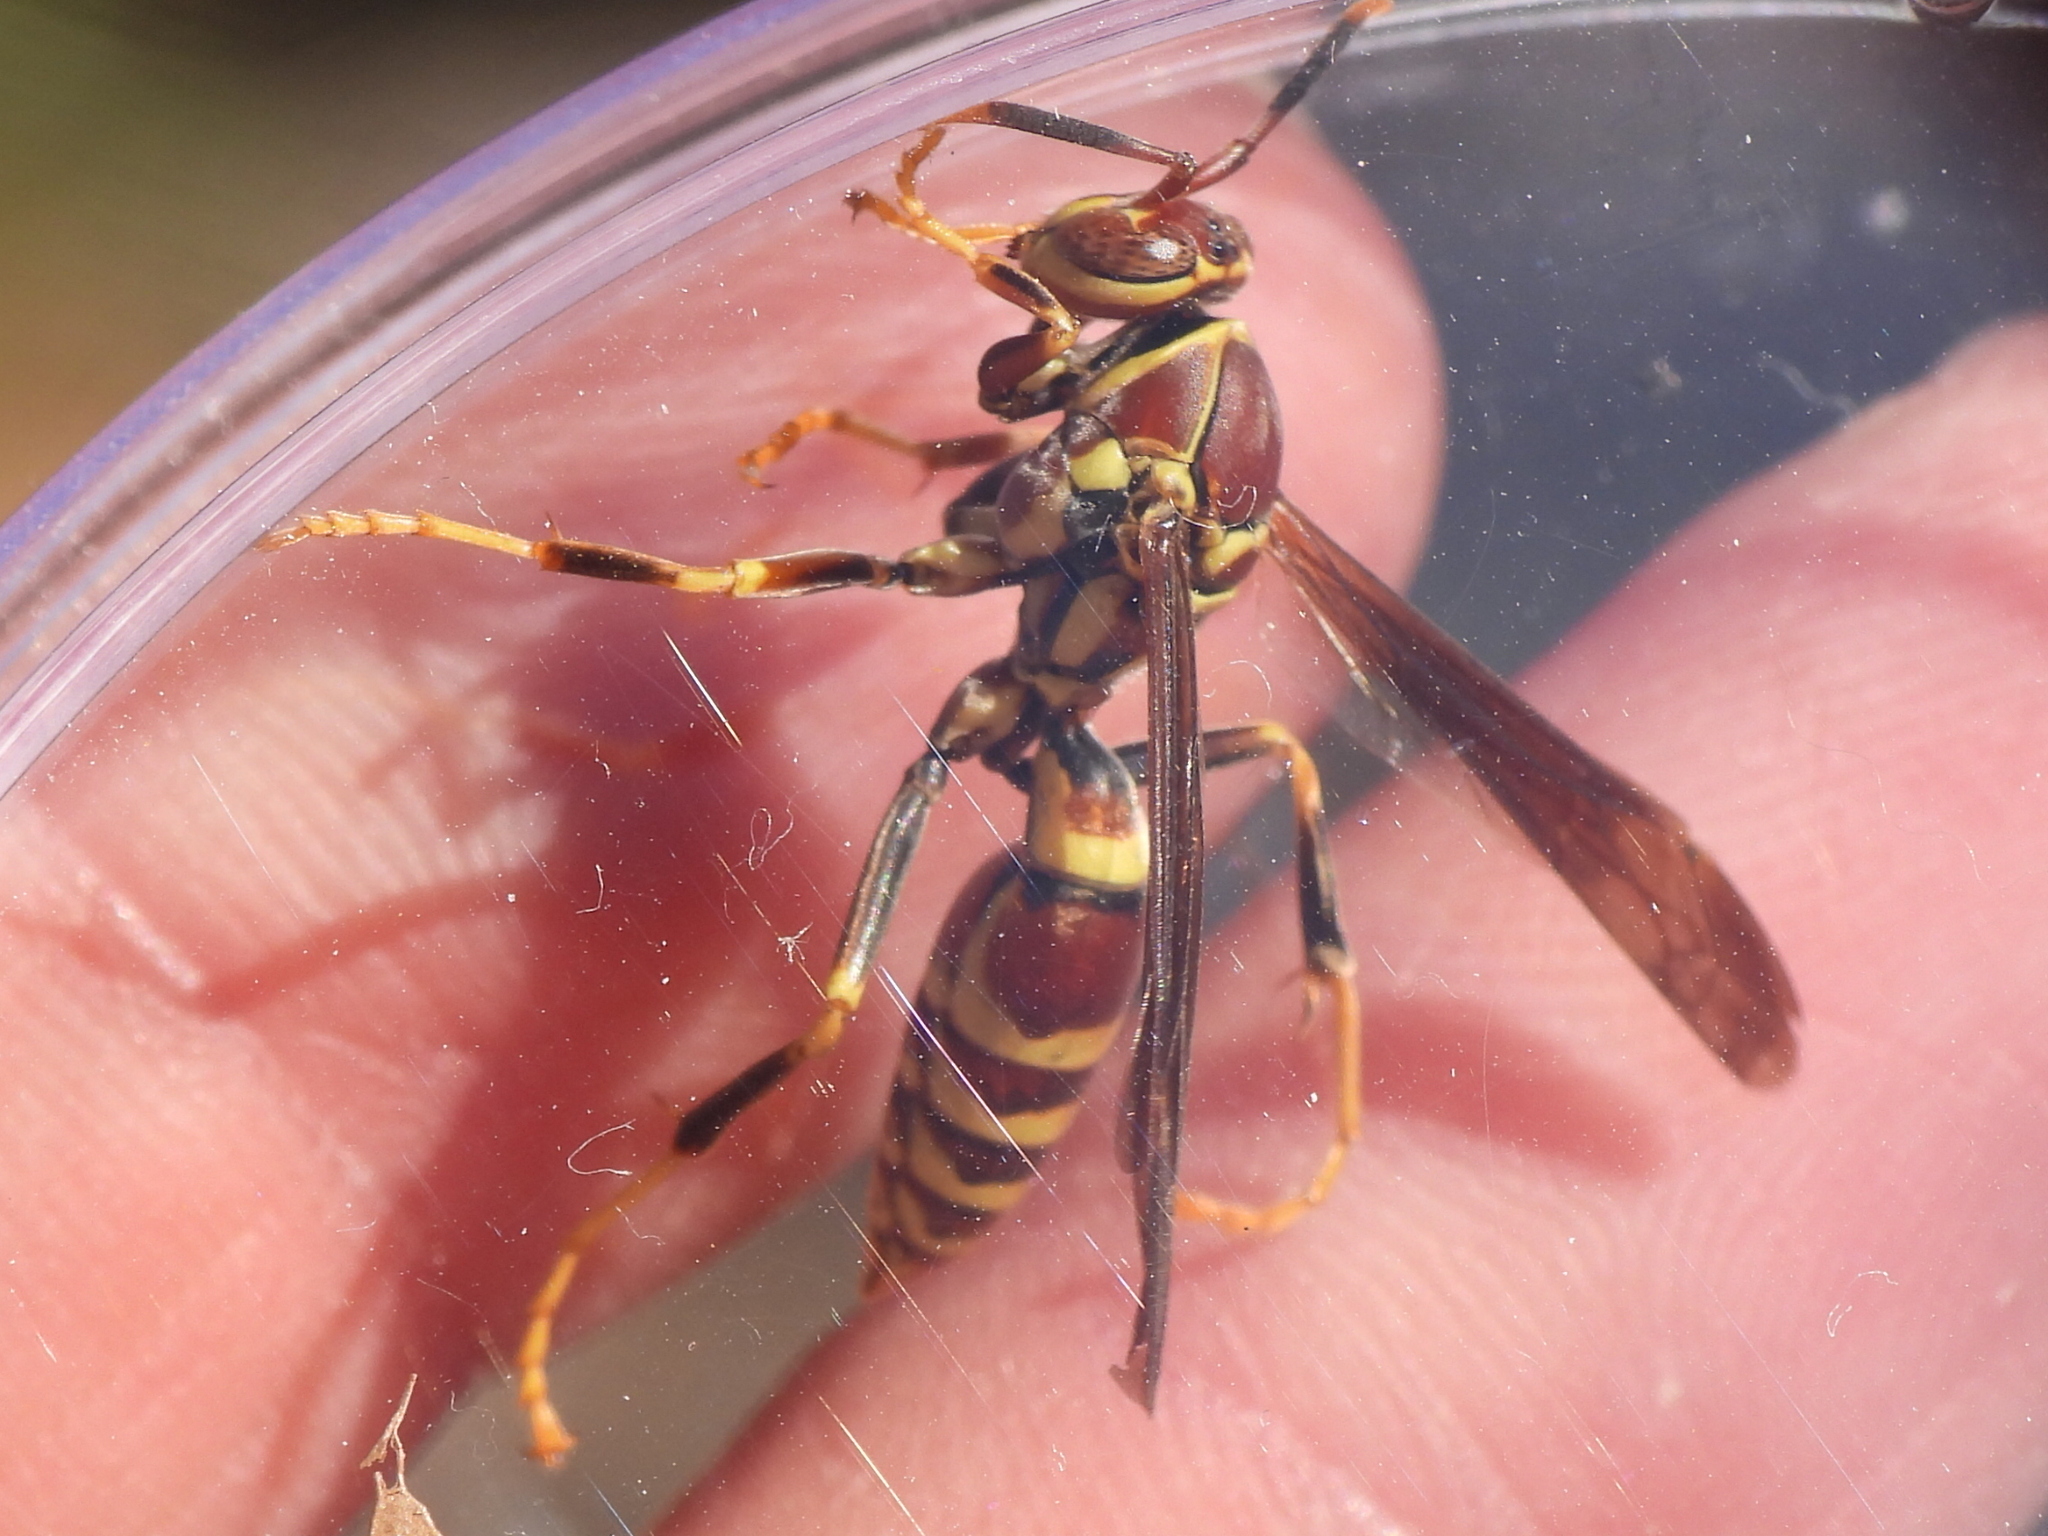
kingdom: Animalia
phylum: Arthropoda
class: Insecta
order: Hymenoptera
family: Eumenidae
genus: Polistes
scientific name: Polistes exclamans
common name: Paper wasp
